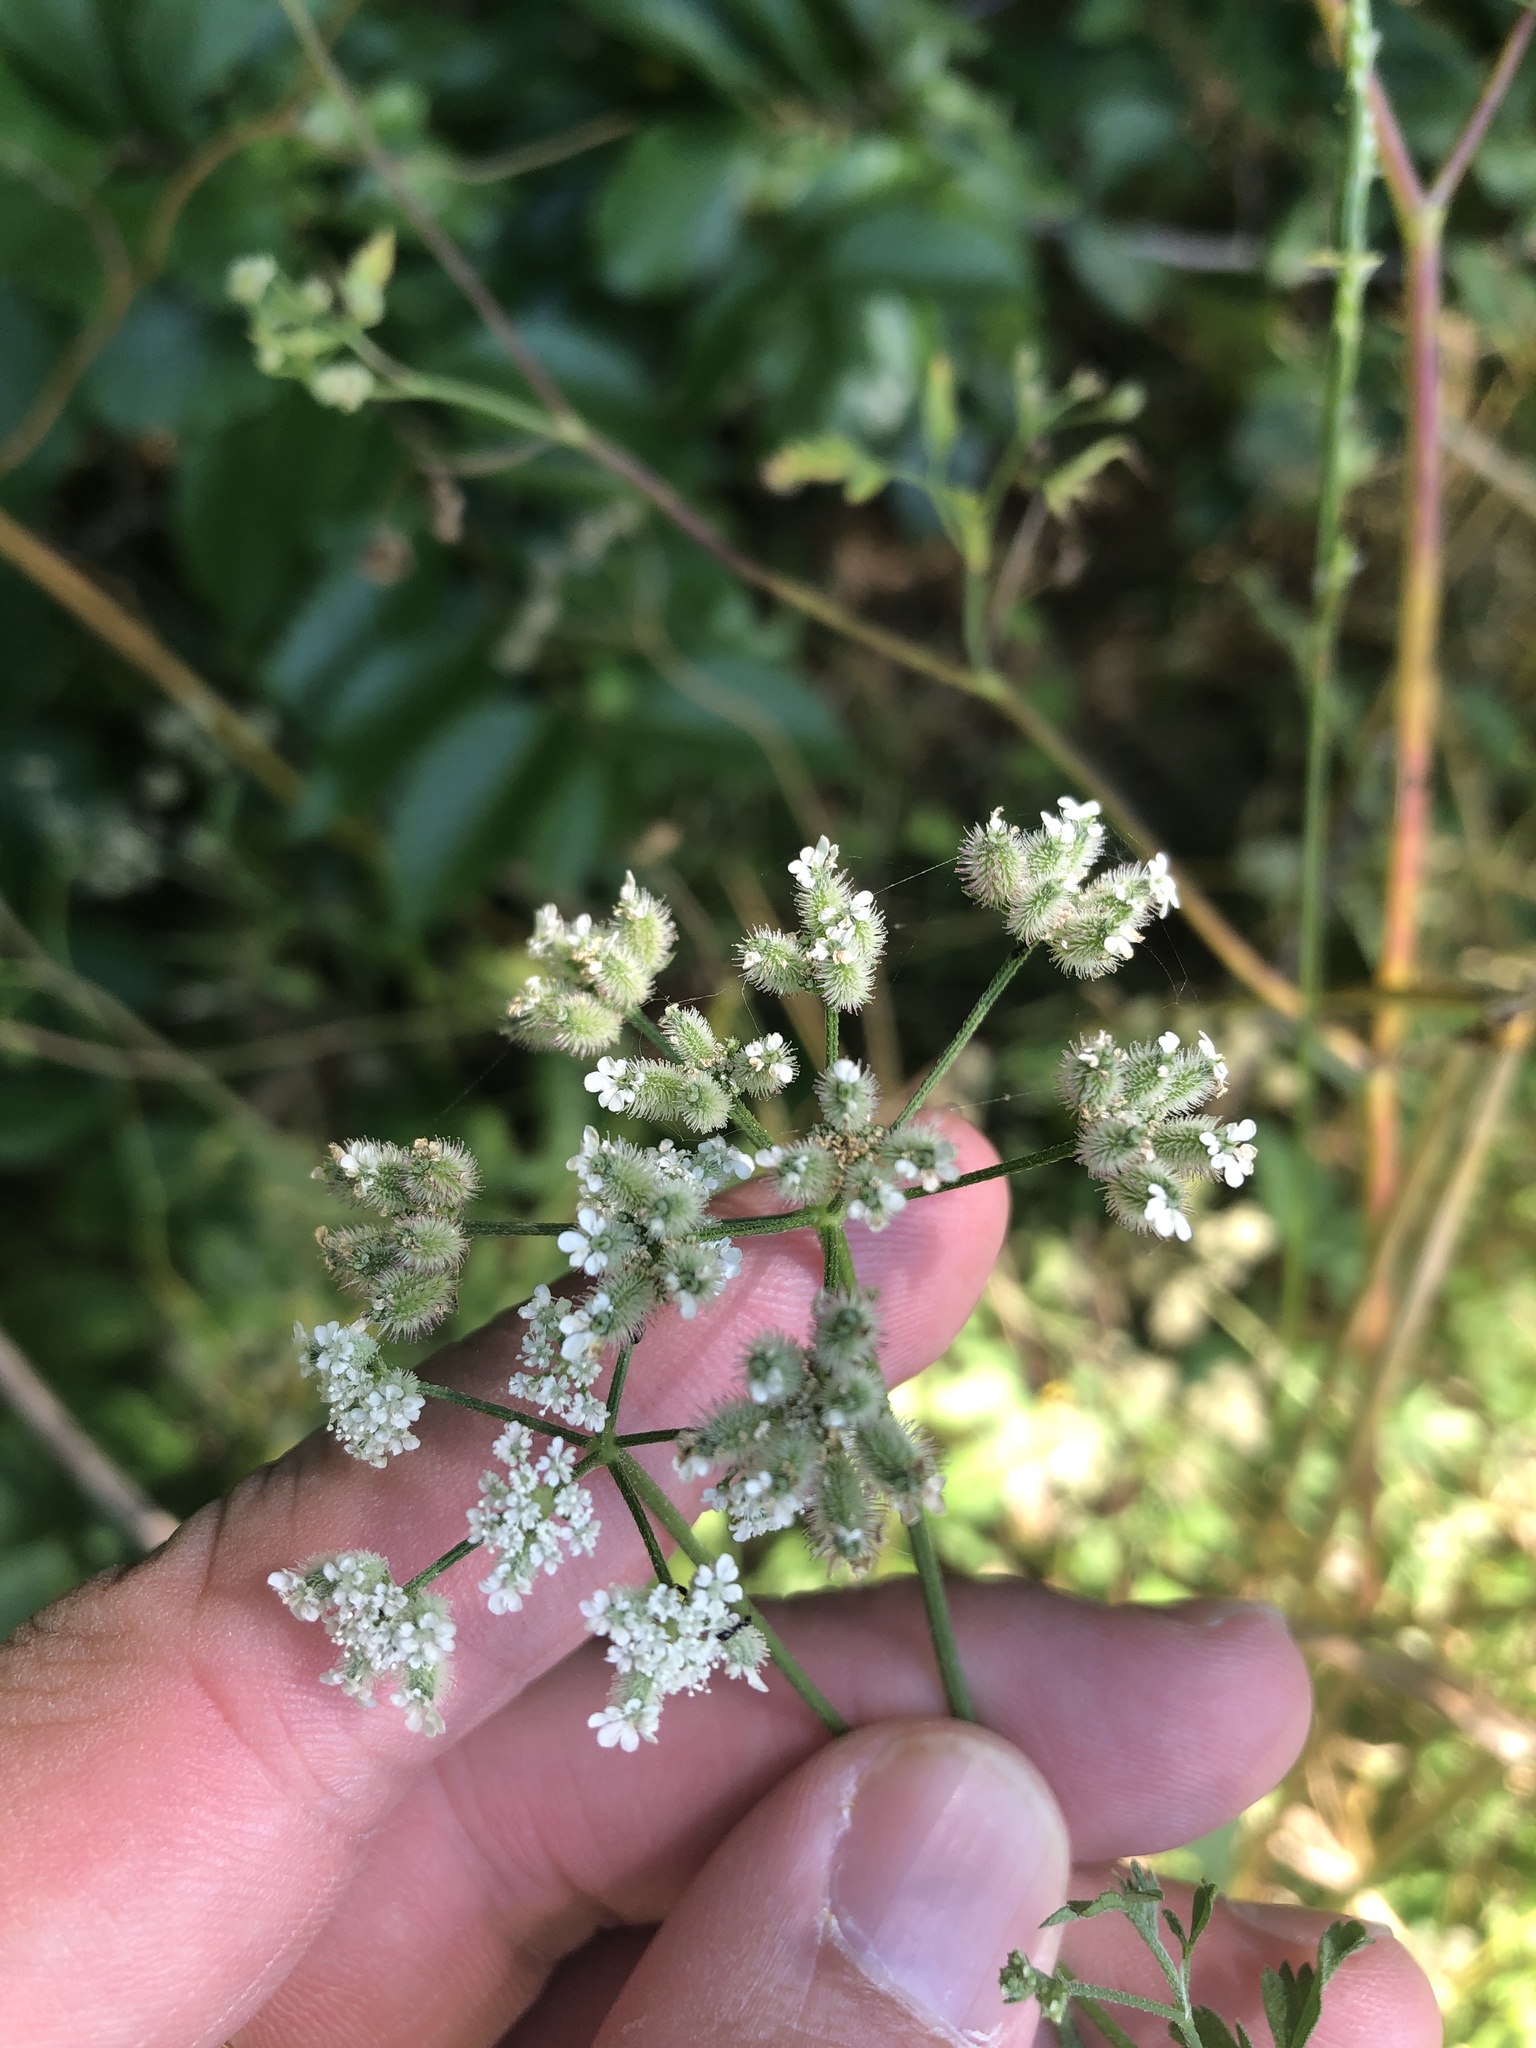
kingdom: Plantae
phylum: Tracheophyta
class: Magnoliopsida
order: Apiales
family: Apiaceae
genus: Torilis
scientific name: Torilis arvensis
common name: Spreading hedge-parsley
